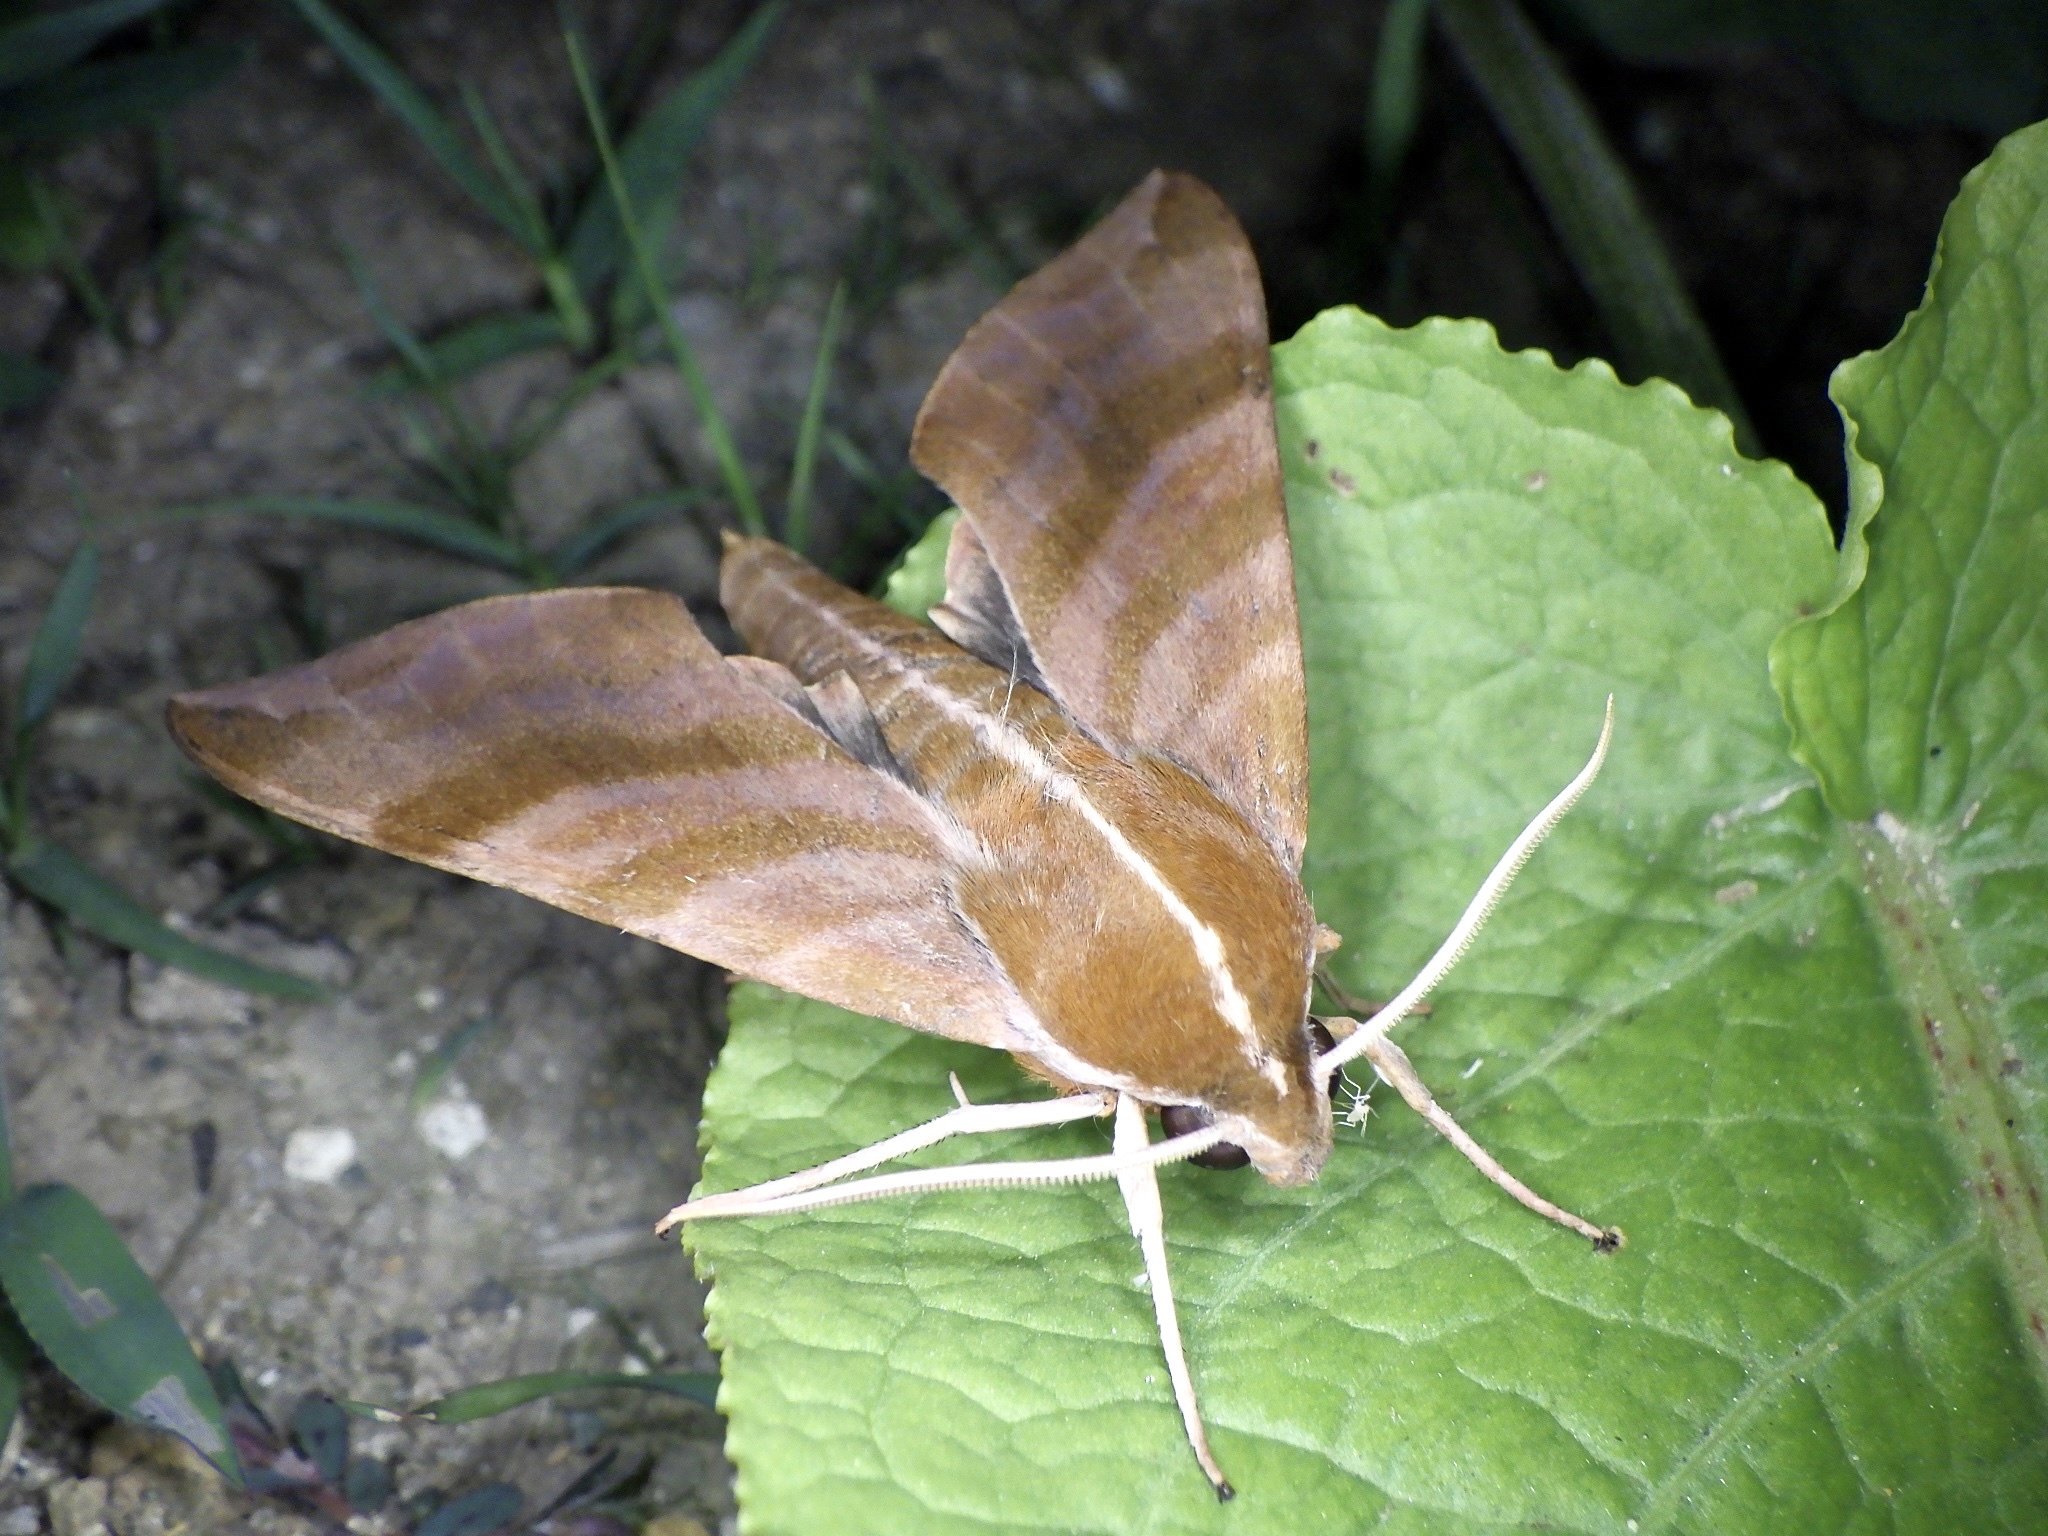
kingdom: Animalia
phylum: Arthropoda
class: Insecta
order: Lepidoptera
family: Sphingidae
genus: Ampelophaga
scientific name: Ampelophaga rubiginosa
